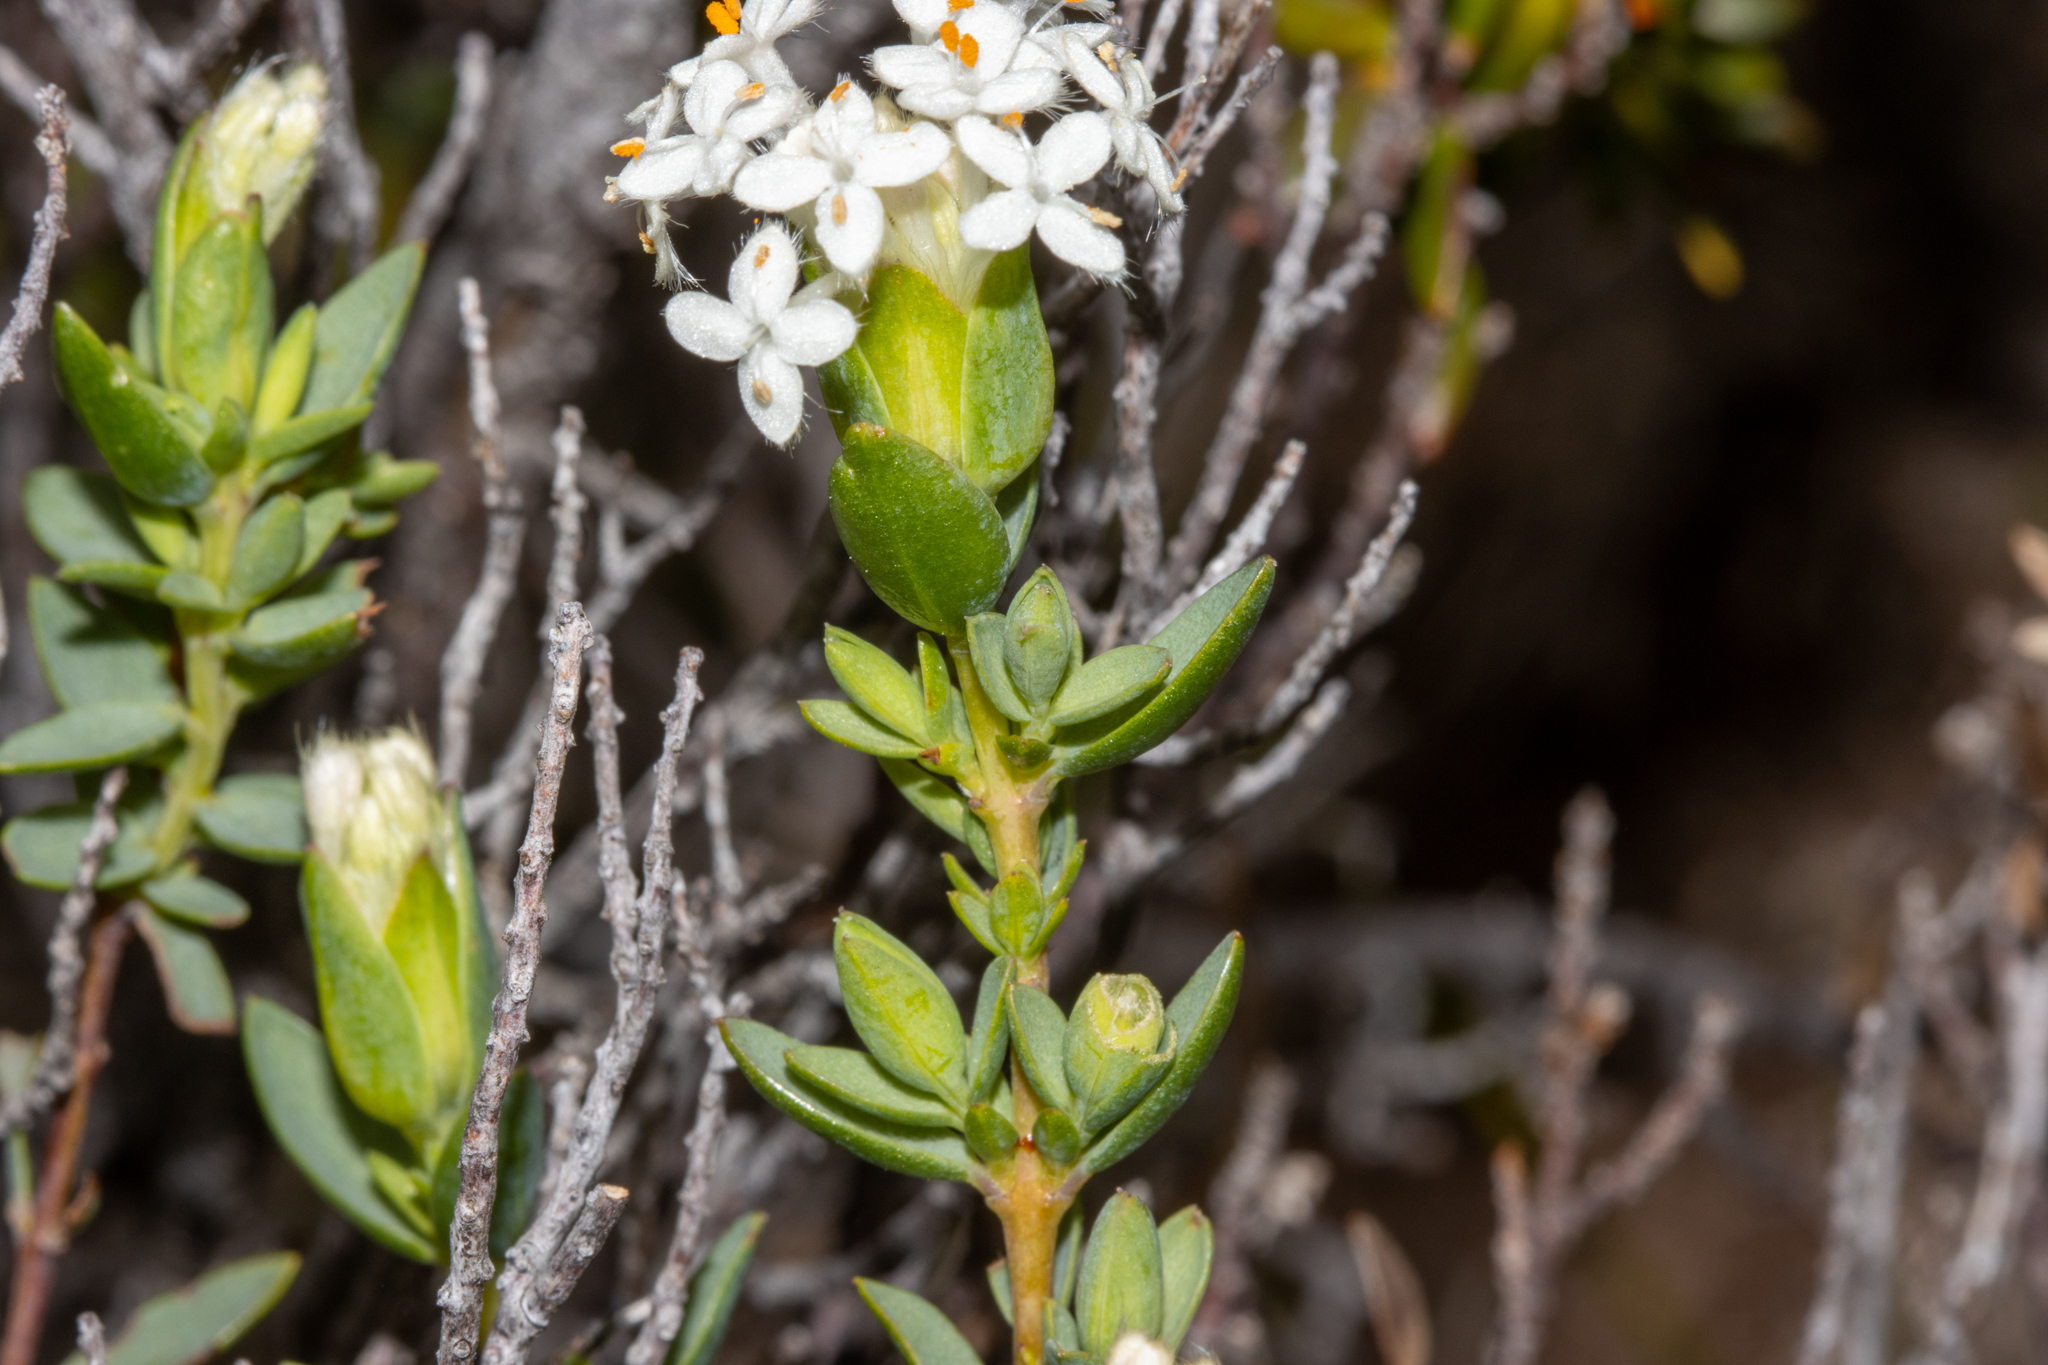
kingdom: Plantae
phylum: Tracheophyta
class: Magnoliopsida
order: Malvales
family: Thymelaeaceae
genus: Pimelea
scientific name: Pimelea glauca
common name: Smooth riceflower
